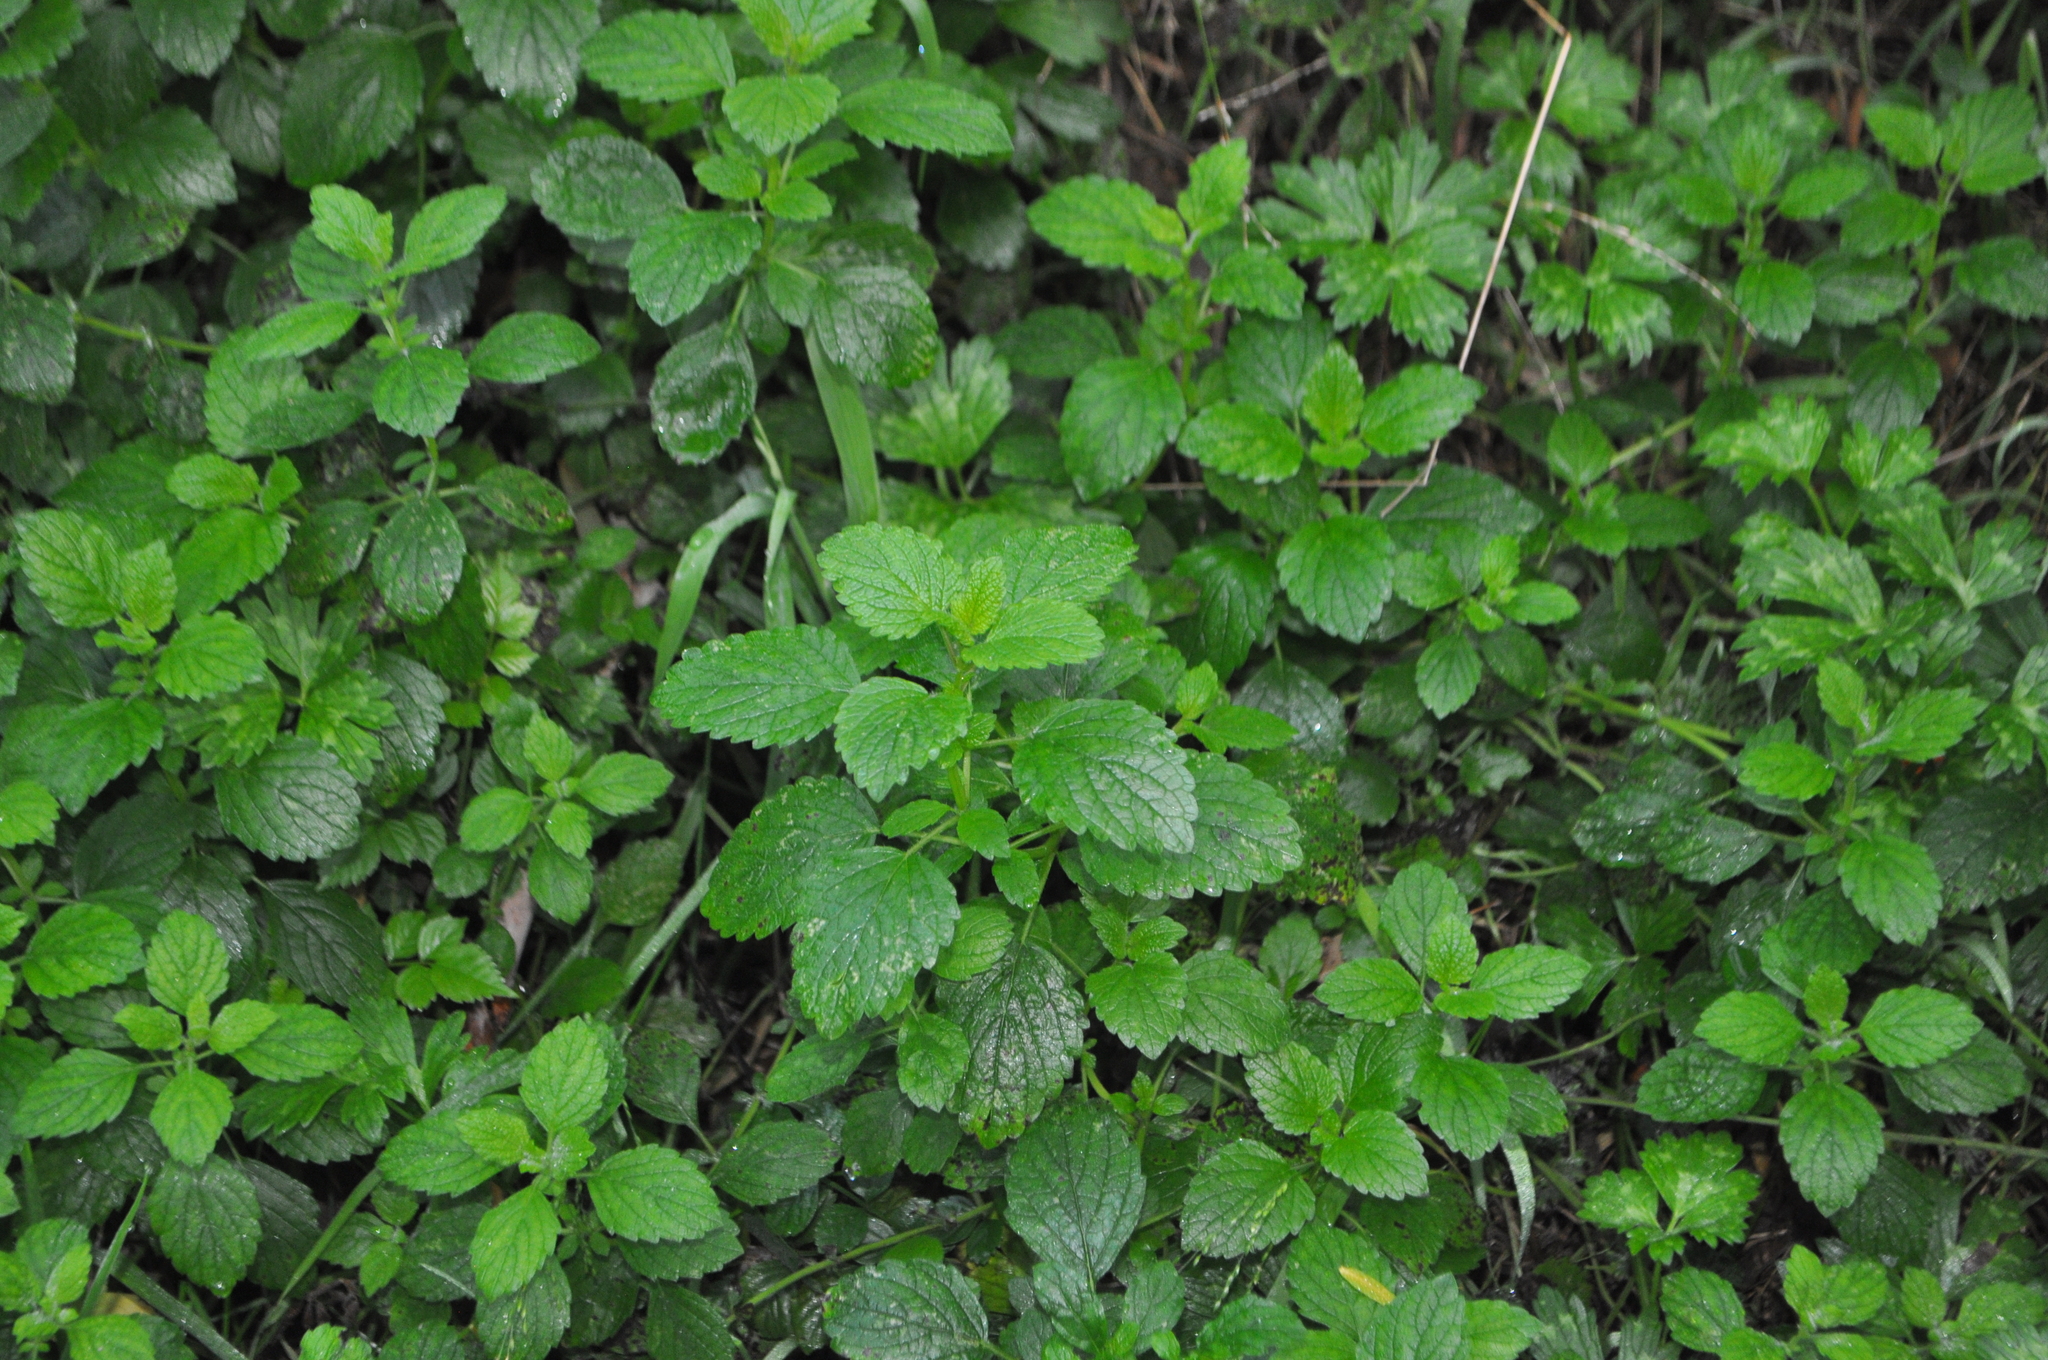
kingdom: Plantae
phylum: Tracheophyta
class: Magnoliopsida
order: Lamiales
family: Lamiaceae
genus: Melissa
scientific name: Melissa officinalis
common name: Balm
